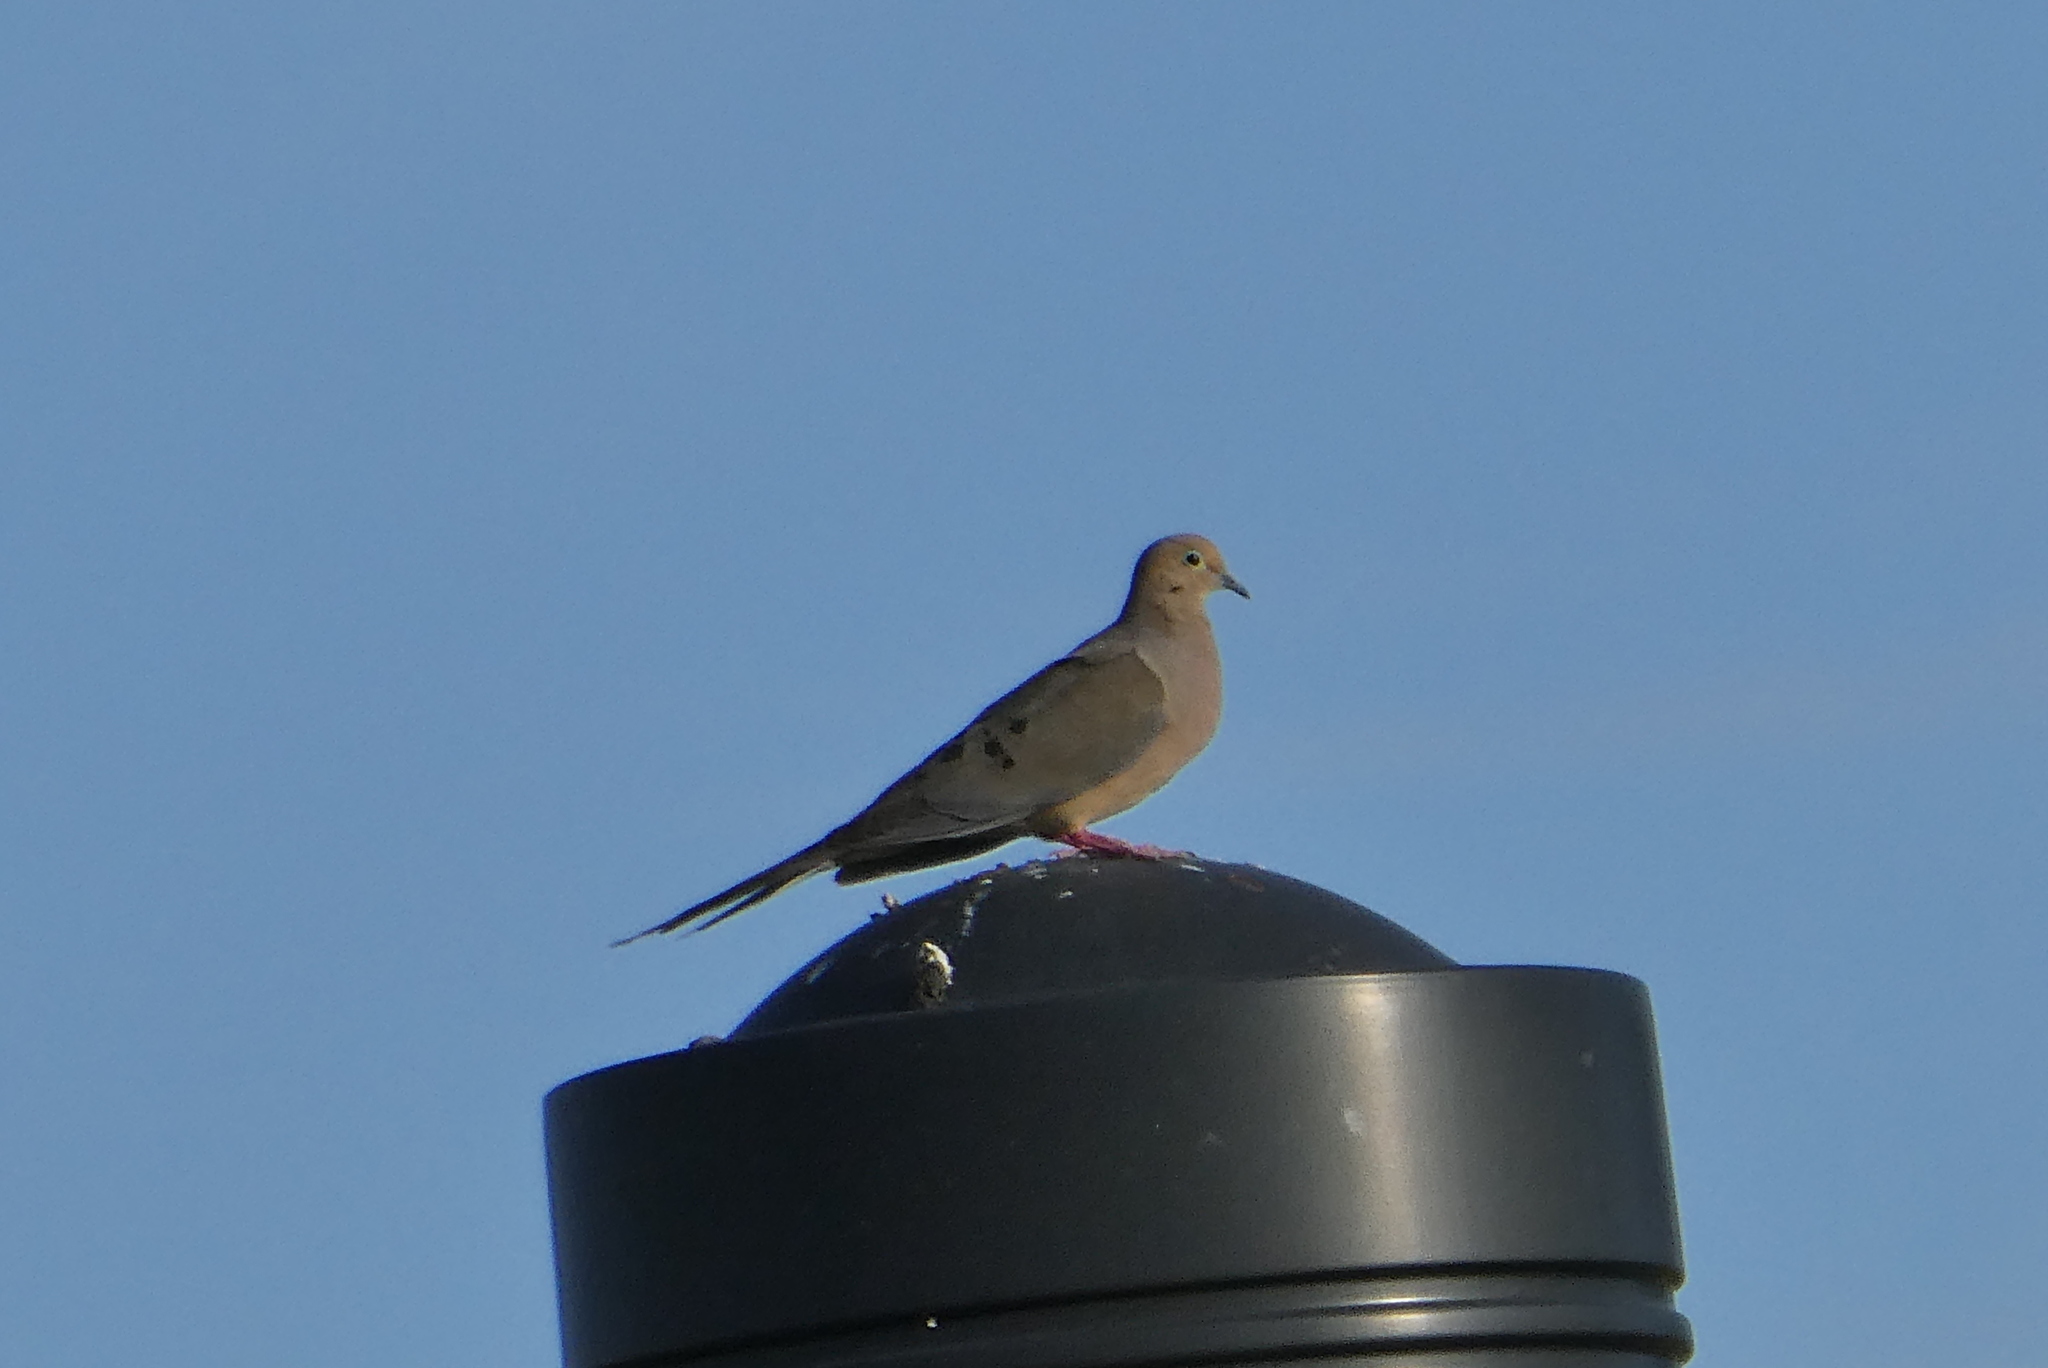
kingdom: Animalia
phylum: Chordata
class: Aves
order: Columbiformes
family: Columbidae
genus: Zenaida
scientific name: Zenaida macroura
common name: Mourning dove
